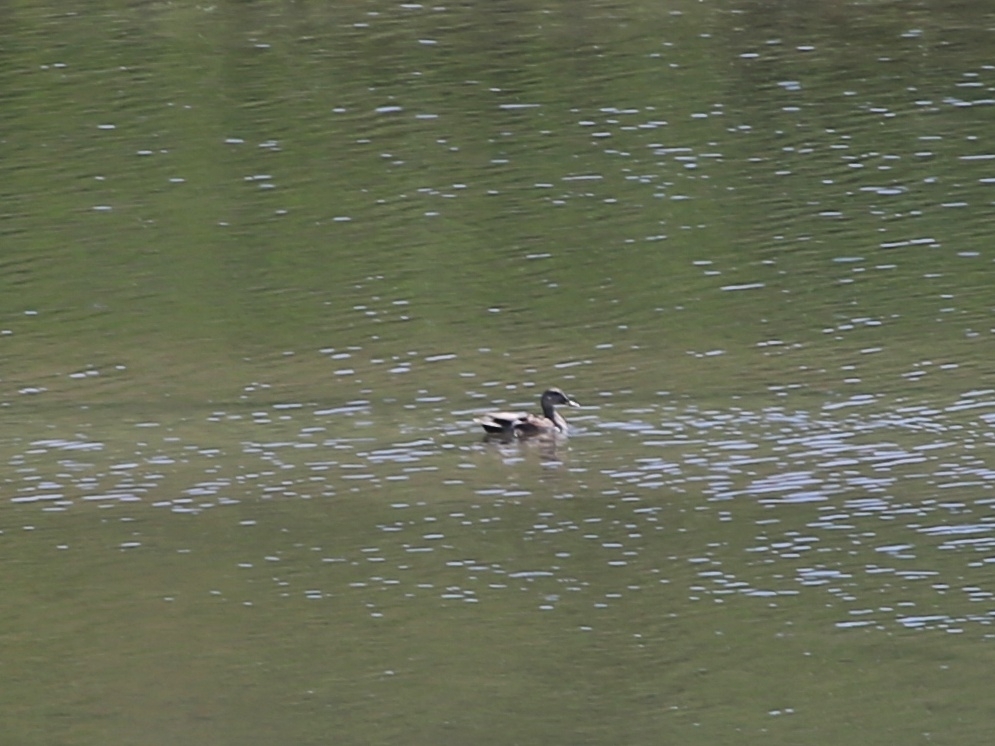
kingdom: Animalia
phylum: Chordata
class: Aves
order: Anseriformes
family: Anatidae
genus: Mareca
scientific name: Mareca strepera
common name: Gadwall
